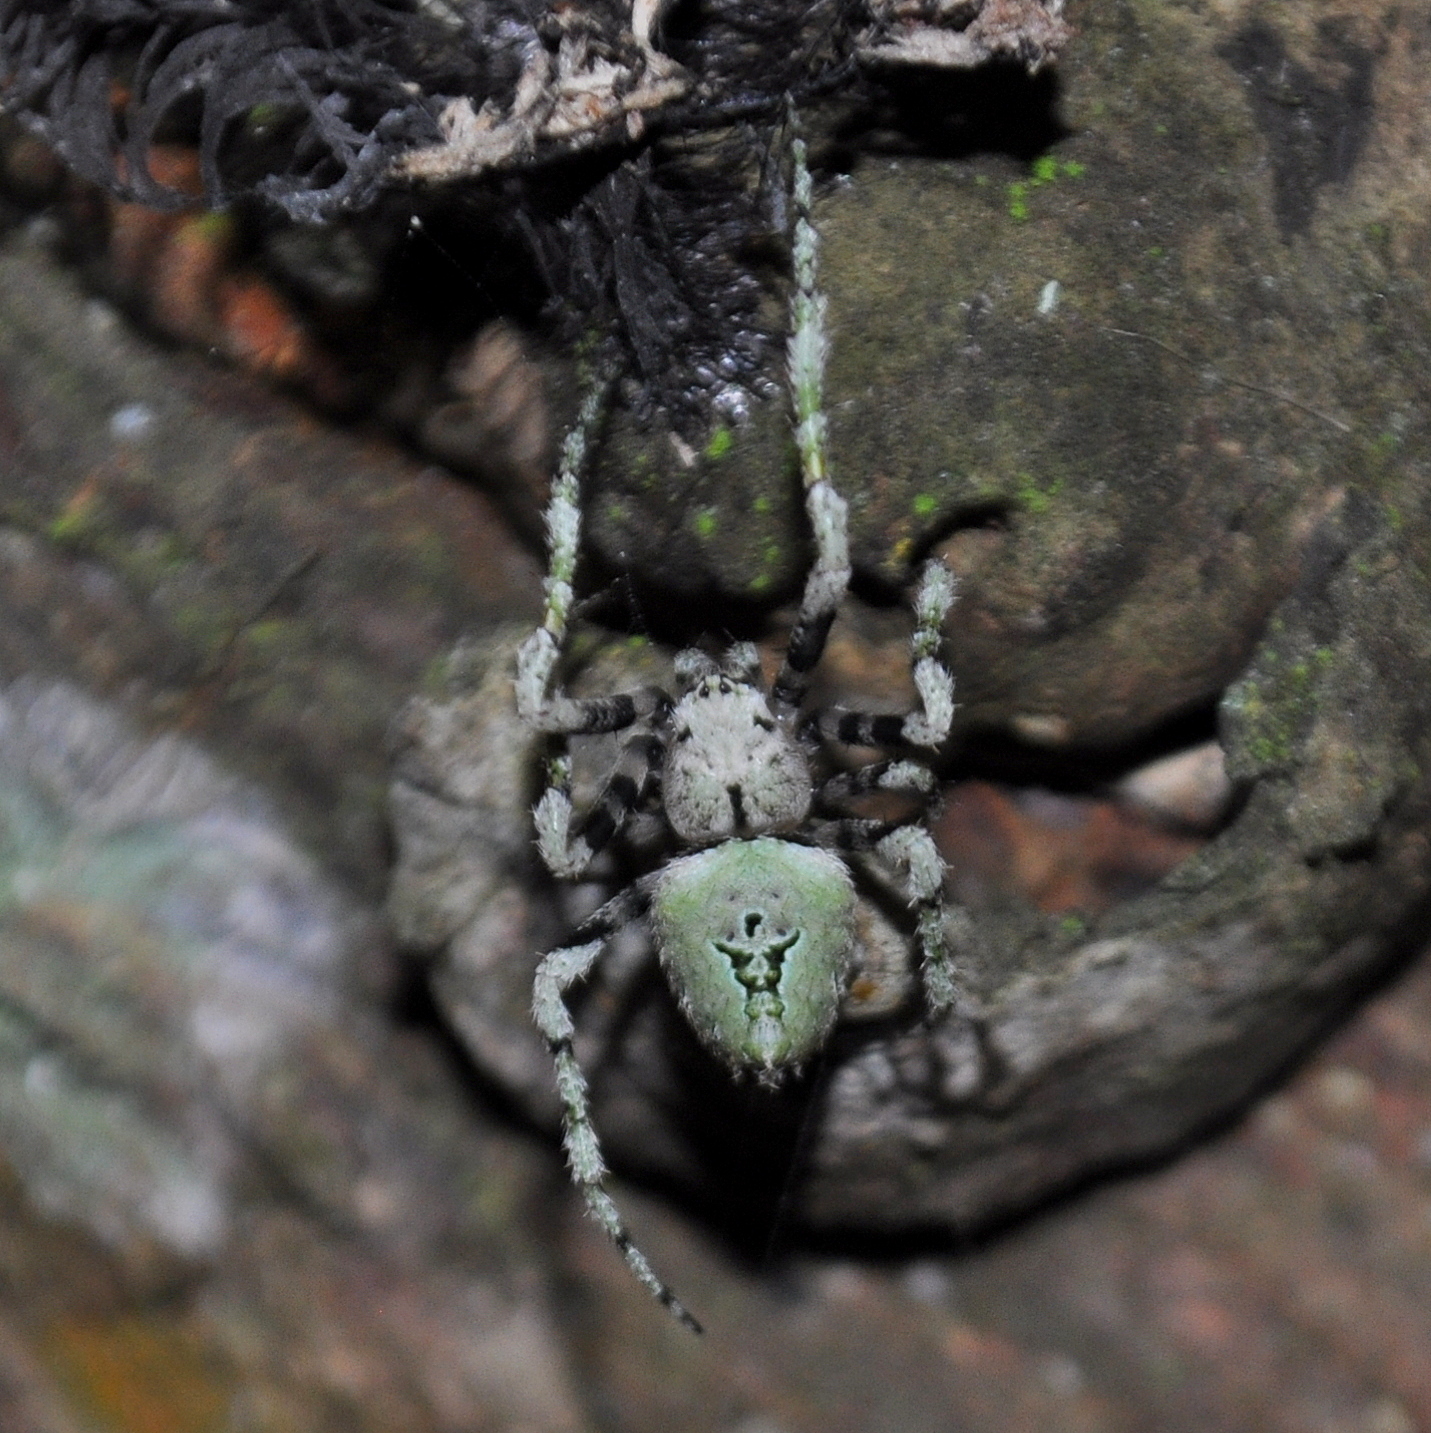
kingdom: Animalia
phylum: Arthropoda
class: Arachnida
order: Araneae
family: Araneidae
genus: Eustala
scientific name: Eustala tribrachiata
